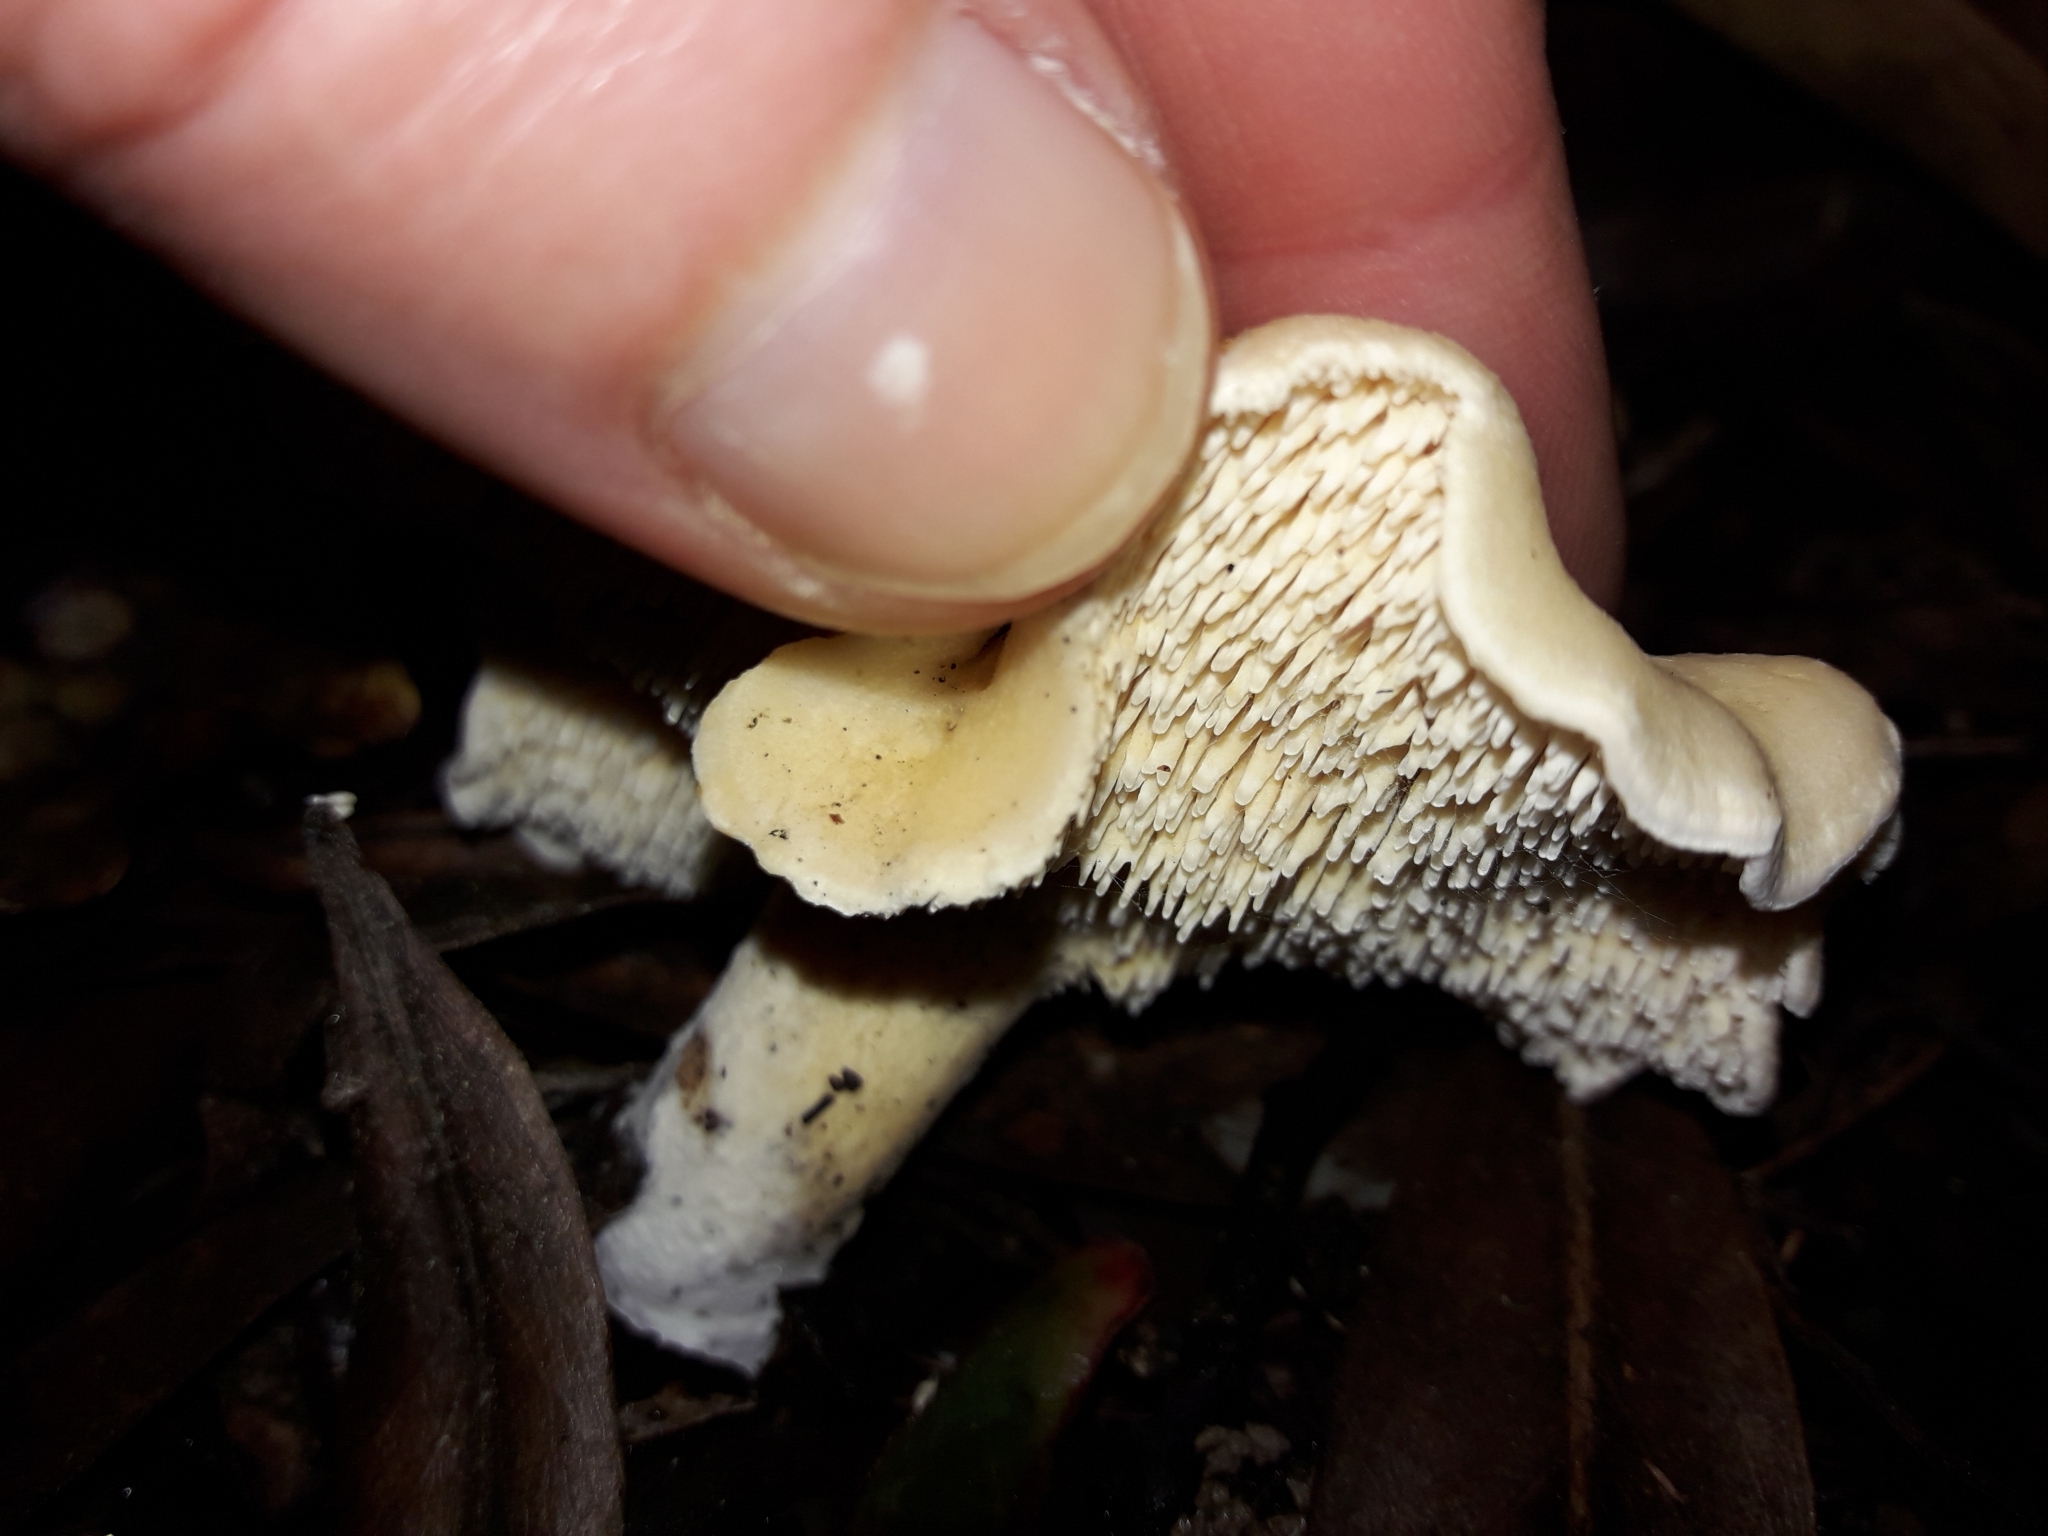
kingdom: Fungi
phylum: Basidiomycota
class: Agaricomycetes
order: Cantharellales
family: Hydnaceae
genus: Hydnum
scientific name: Hydnum ambustum
